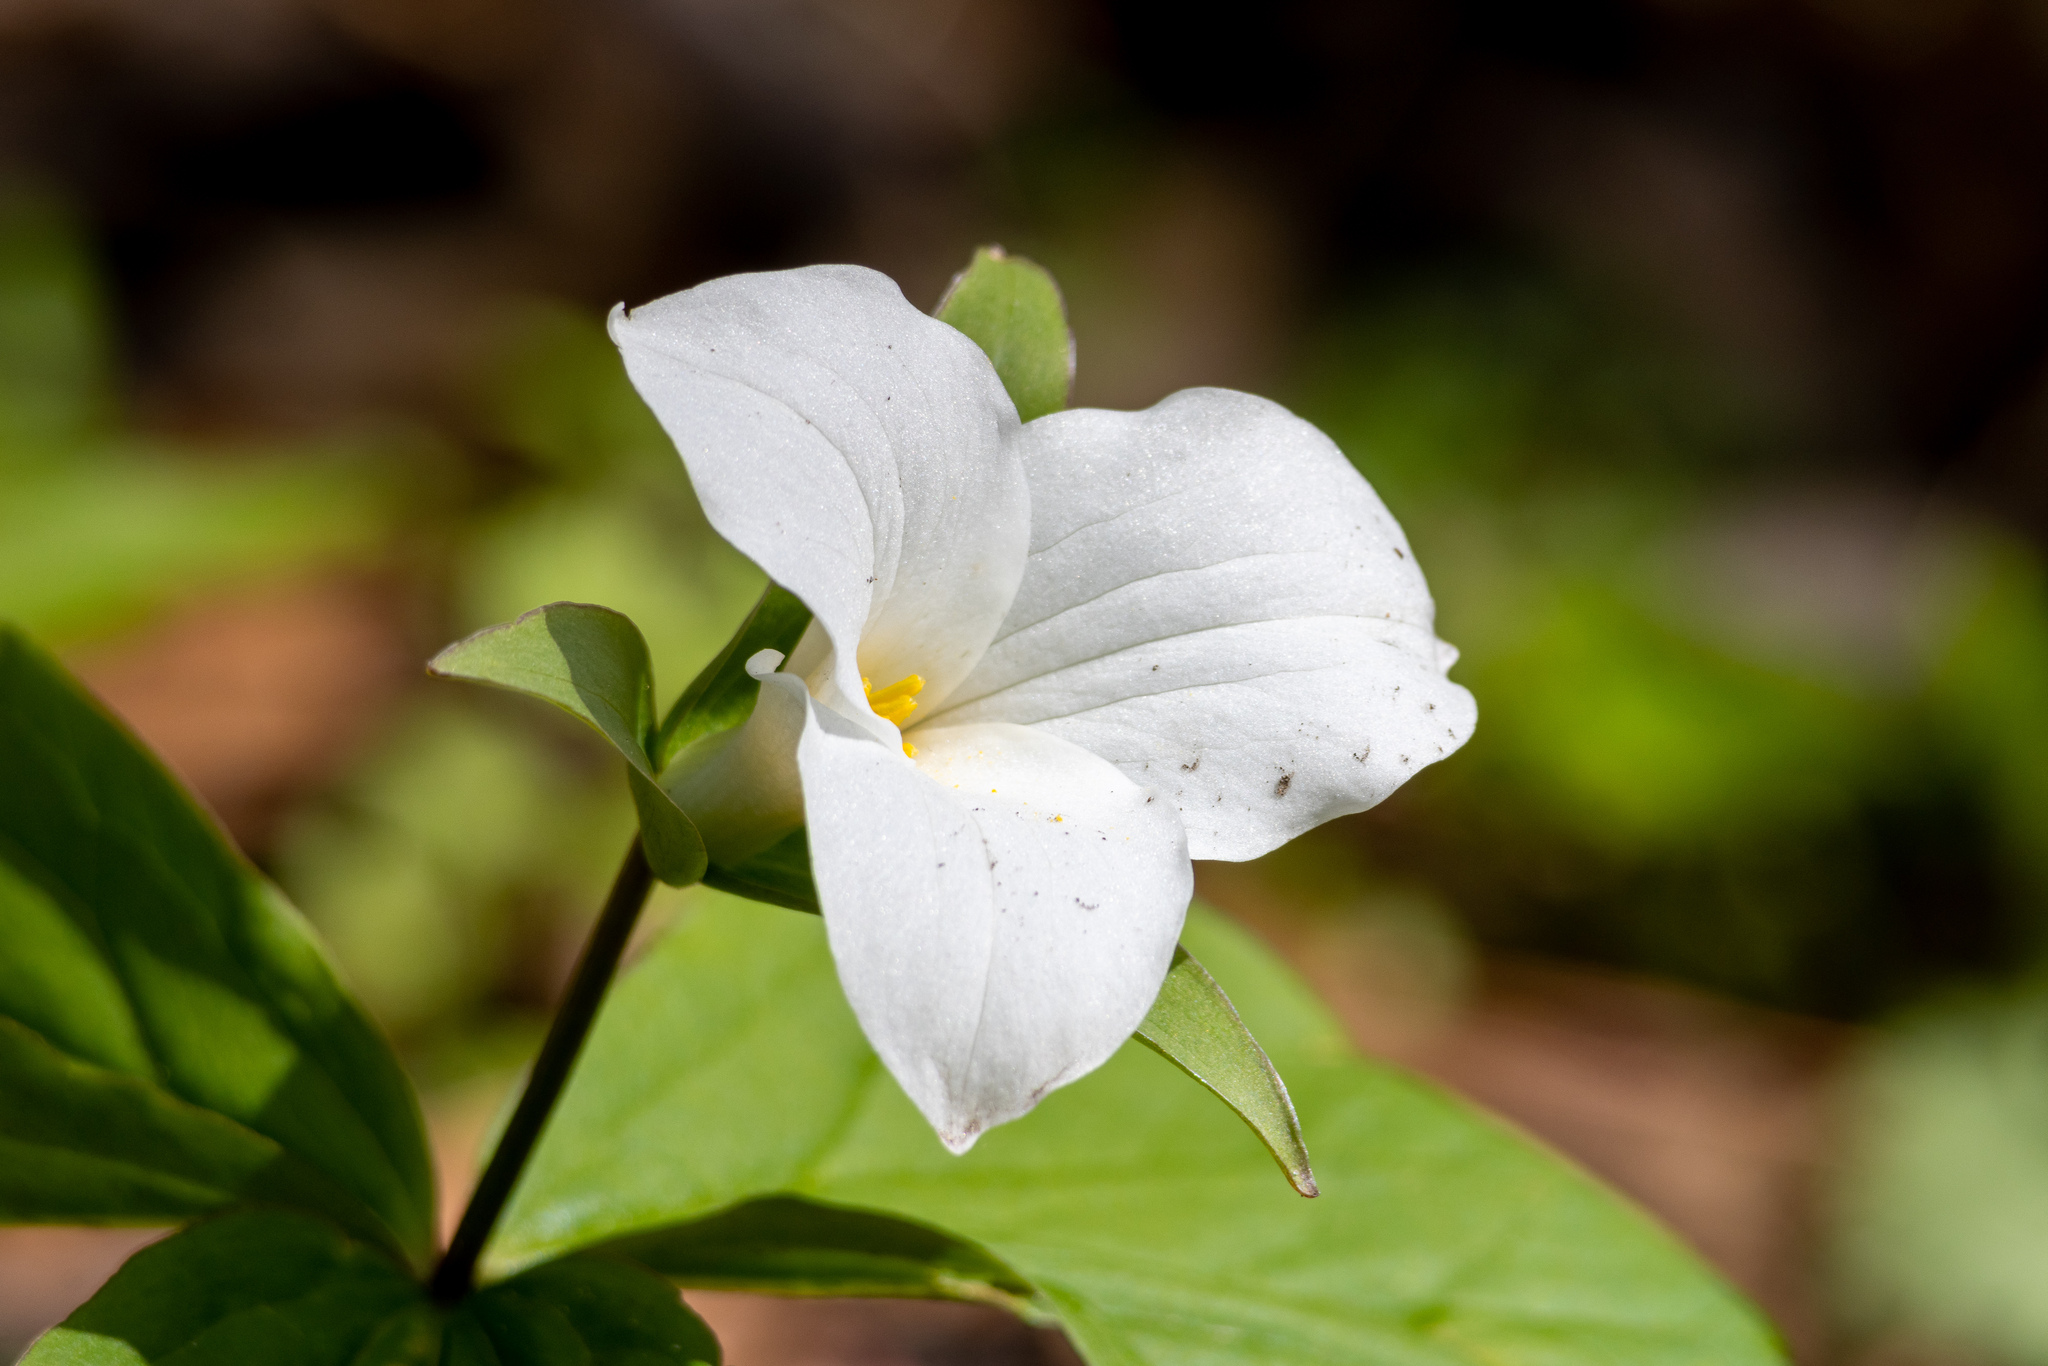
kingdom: Plantae
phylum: Tracheophyta
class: Liliopsida
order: Liliales
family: Melanthiaceae
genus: Trillium
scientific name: Trillium grandiflorum
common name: Great white trillium
